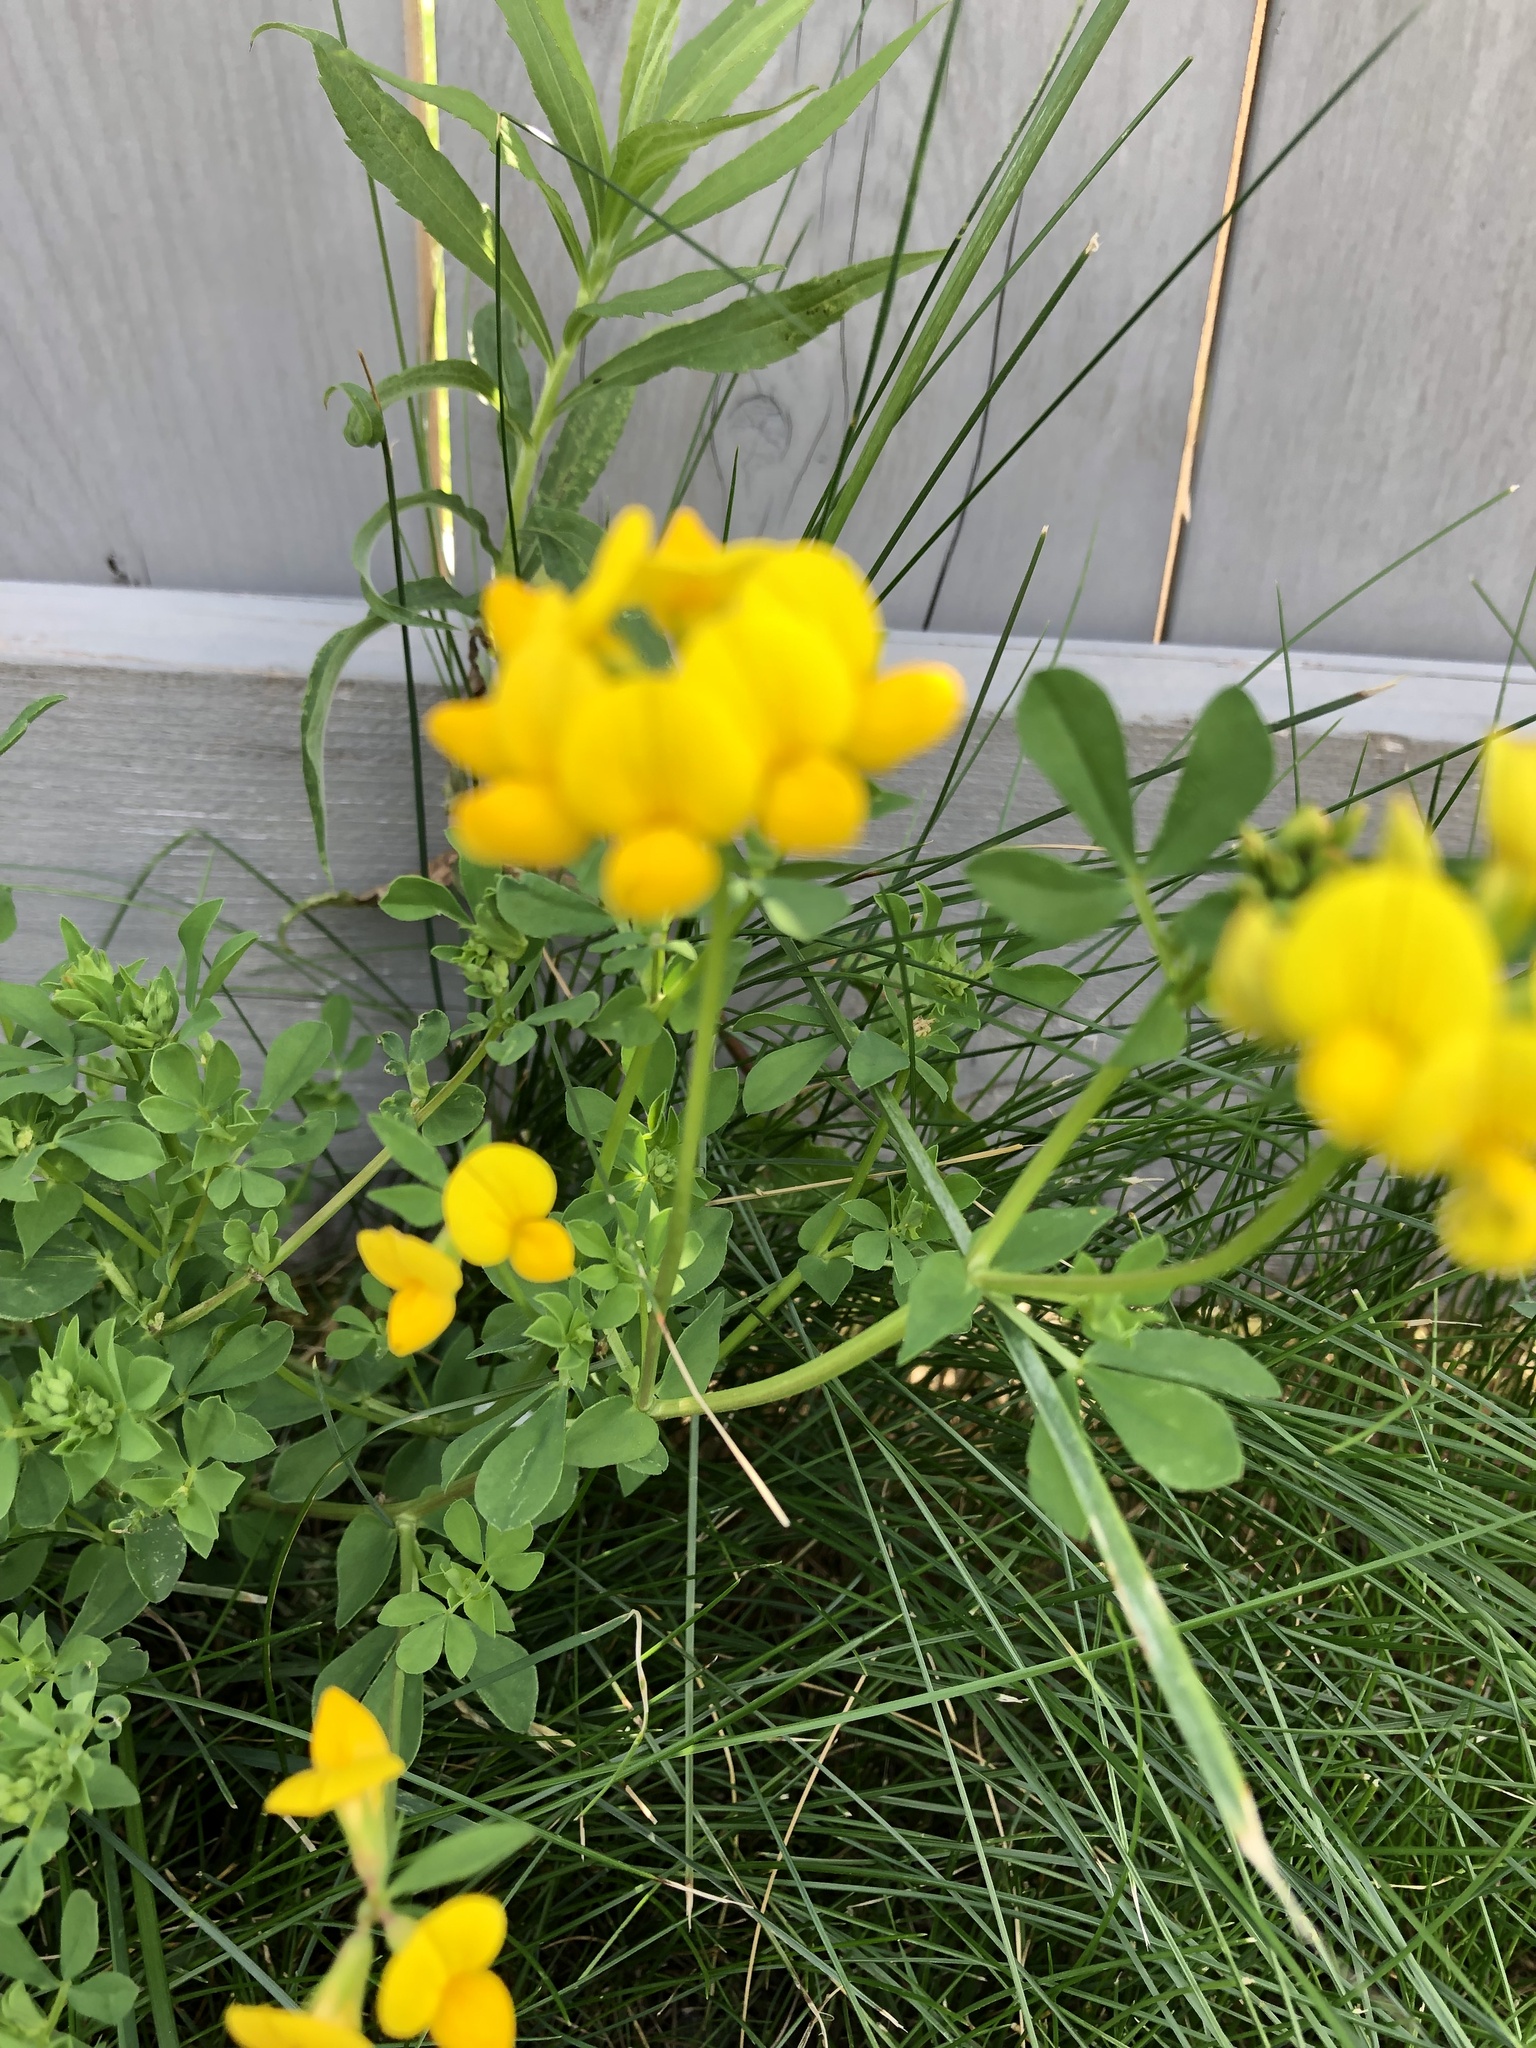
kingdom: Plantae
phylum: Tracheophyta
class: Magnoliopsida
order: Fabales
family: Fabaceae
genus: Lotus
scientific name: Lotus corniculatus
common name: Common bird's-foot-trefoil
